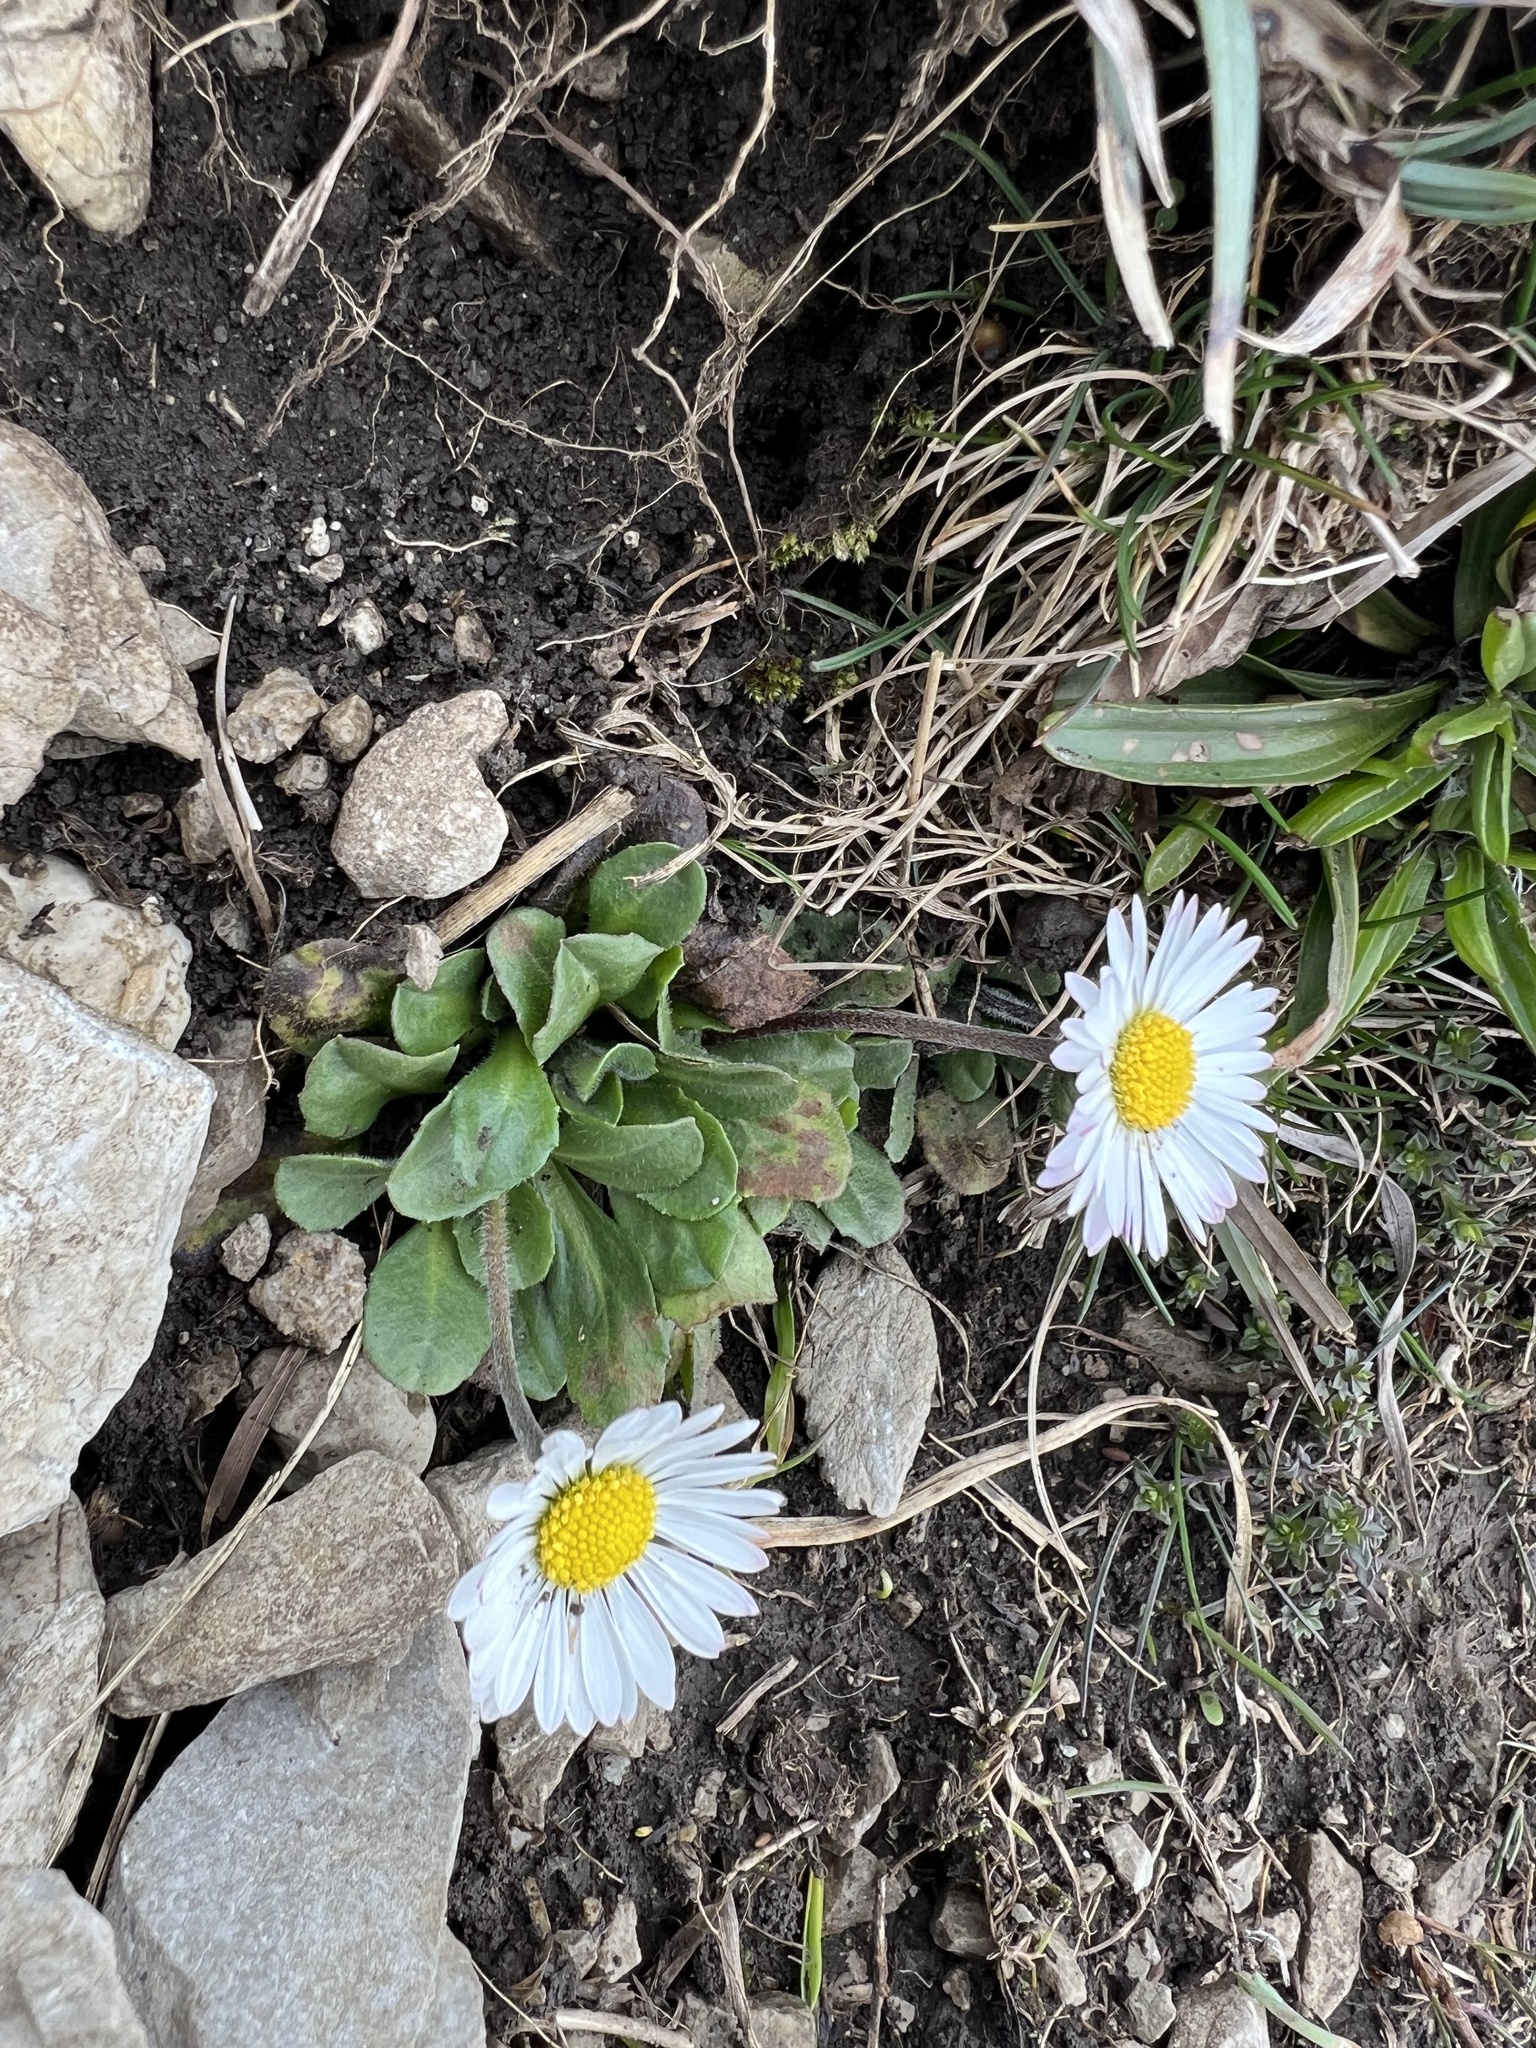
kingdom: Plantae
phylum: Tracheophyta
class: Magnoliopsida
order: Asterales
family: Asteraceae
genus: Bellis
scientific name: Bellis perennis
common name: Lawndaisy
